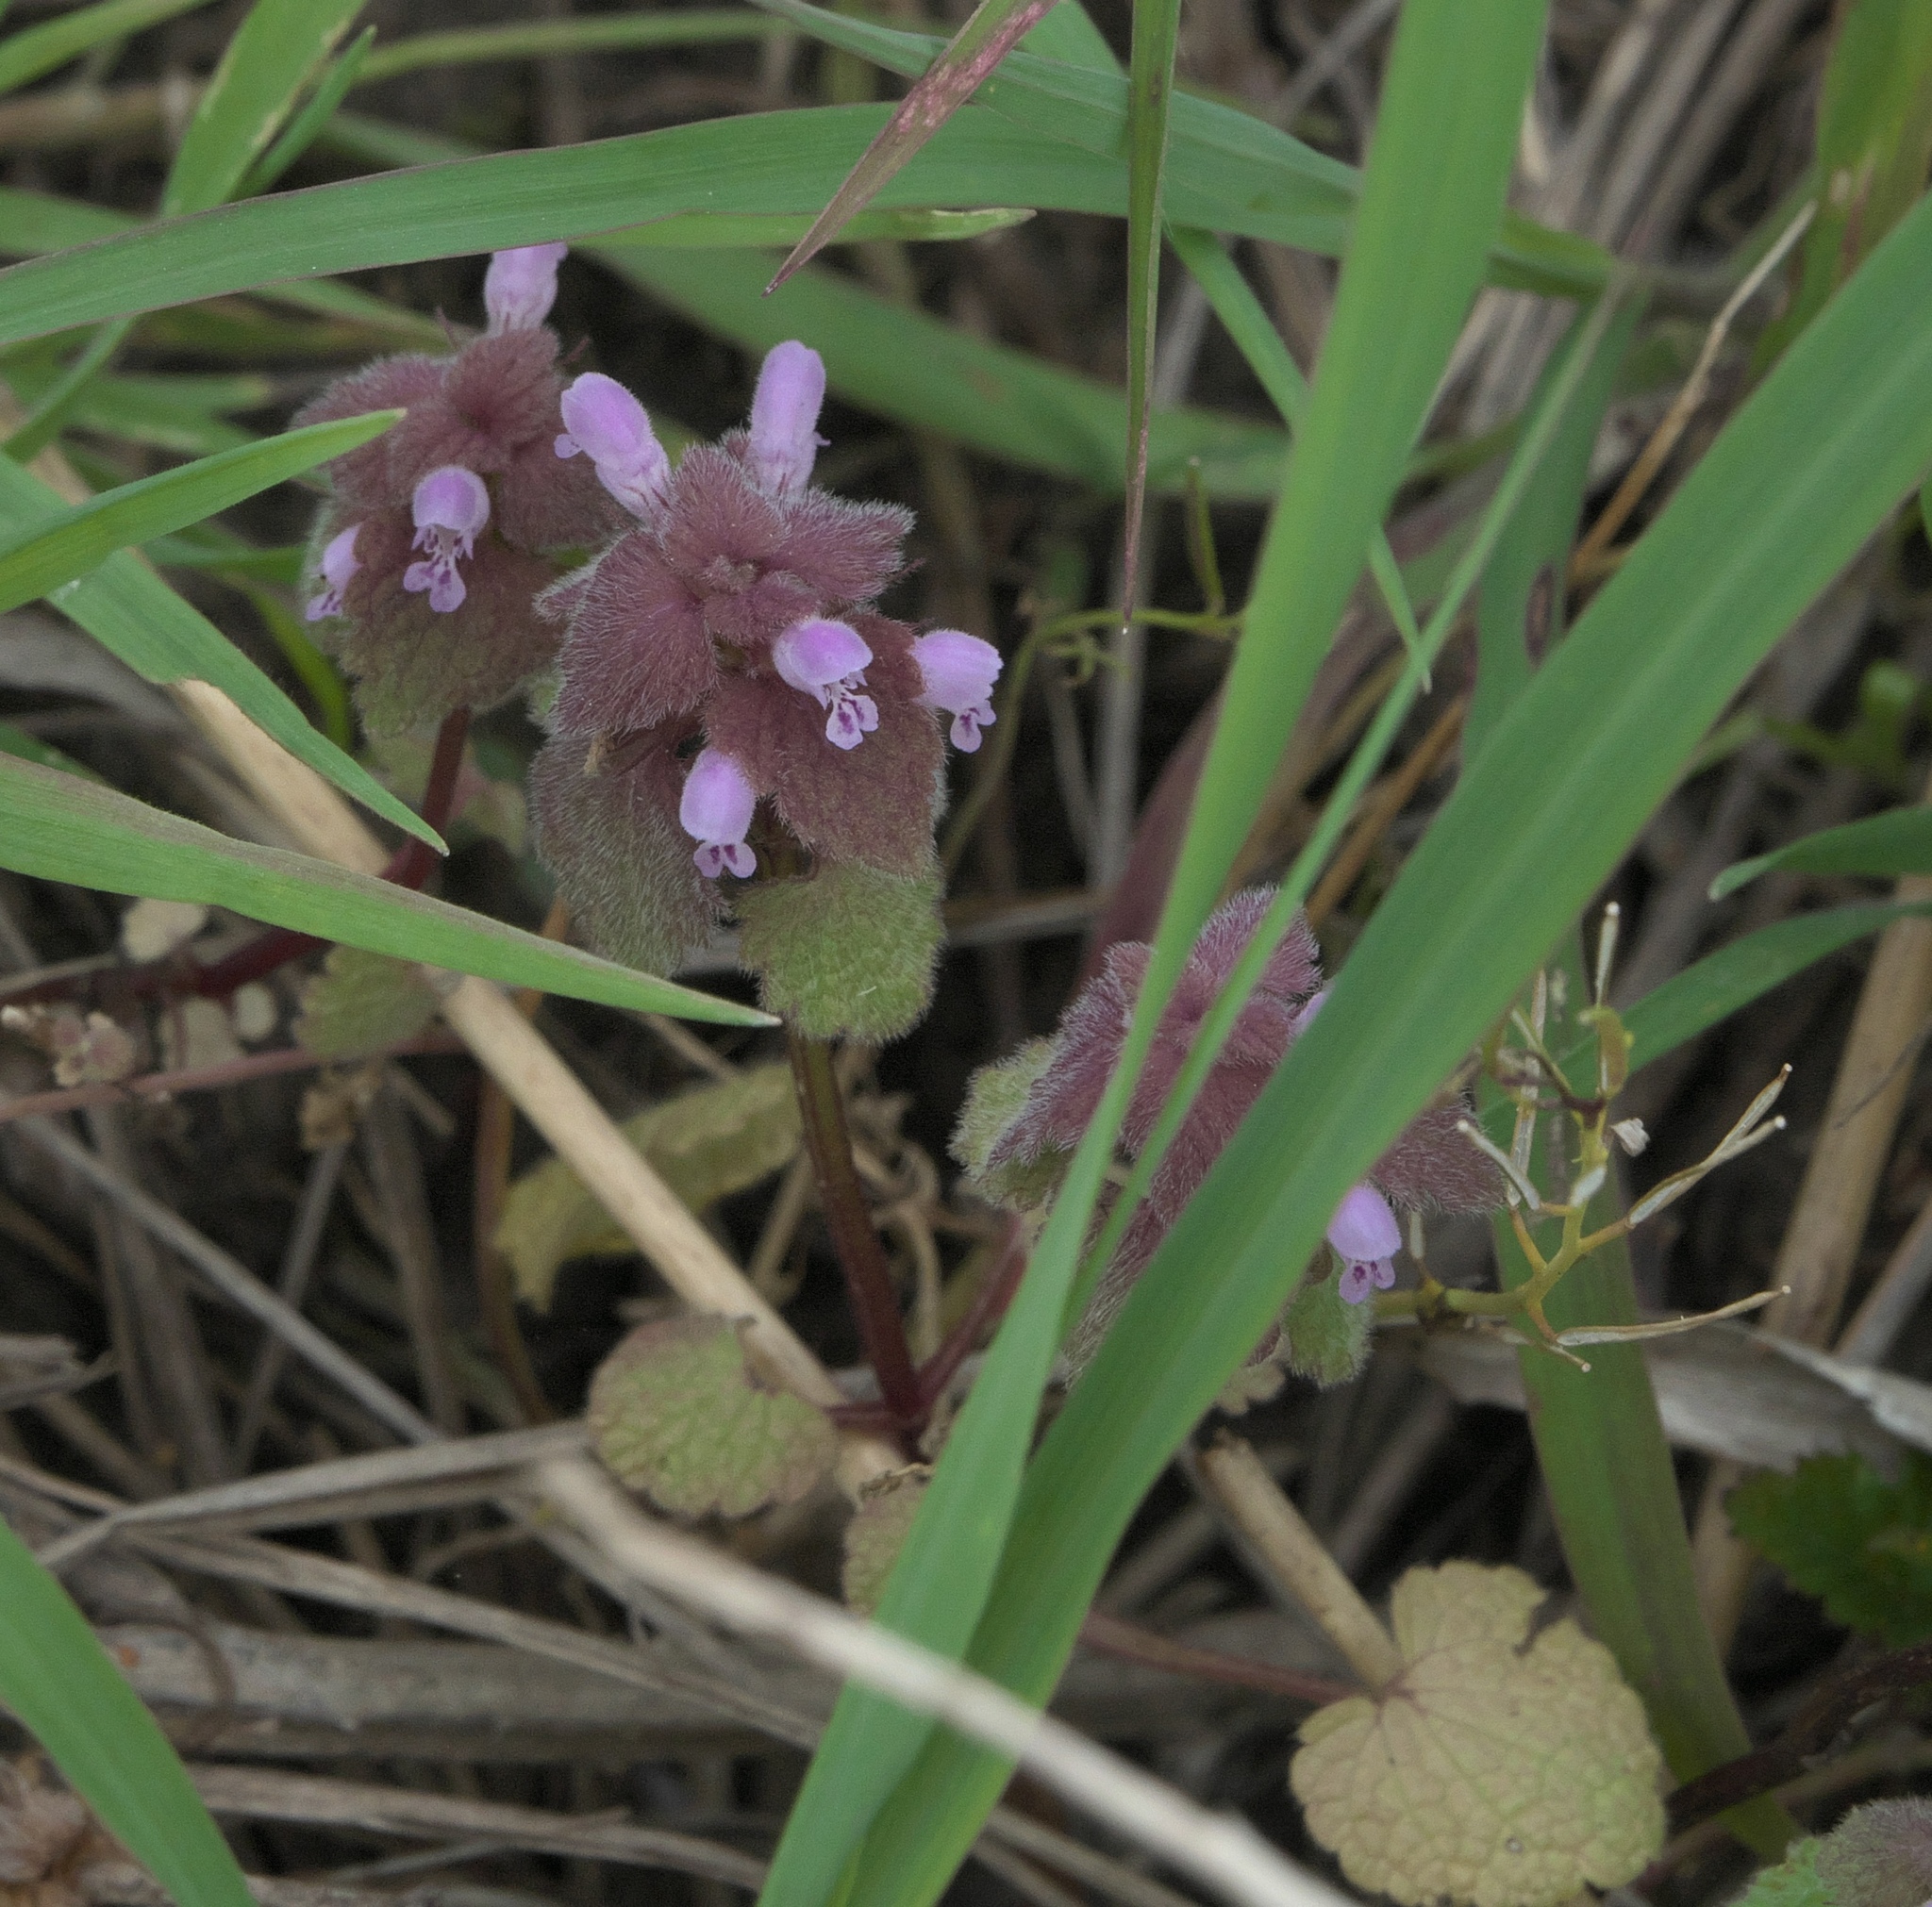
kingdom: Plantae
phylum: Tracheophyta
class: Magnoliopsida
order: Lamiales
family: Lamiaceae
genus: Lamium
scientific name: Lamium purpureum
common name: Red dead-nettle
